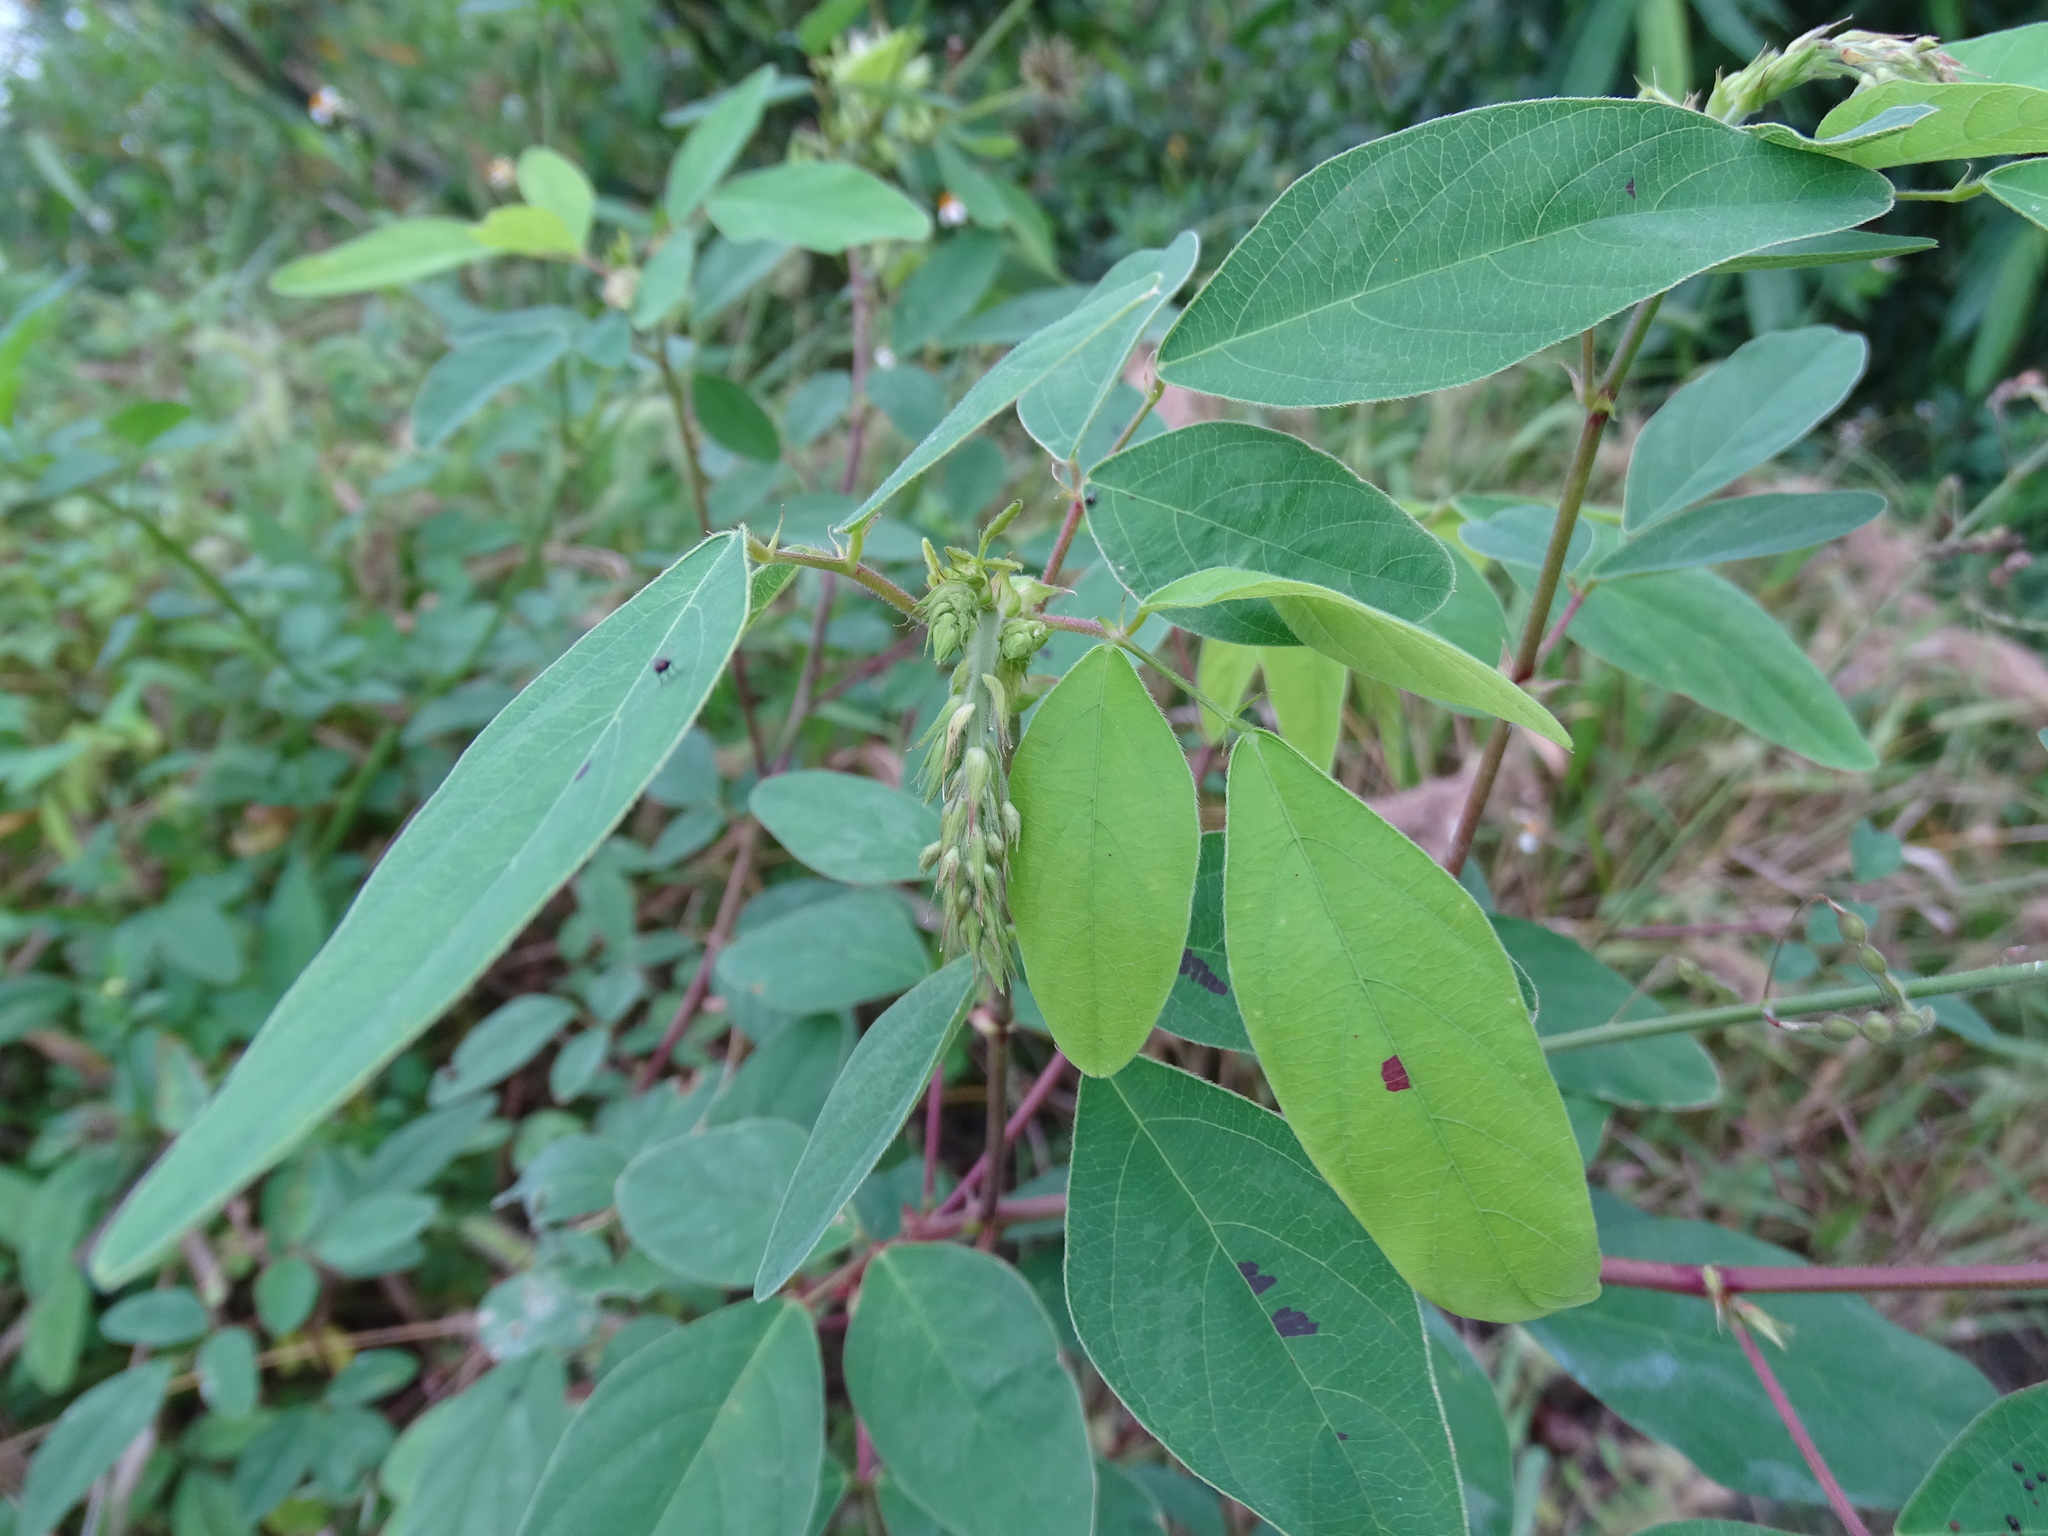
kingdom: Plantae
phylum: Tracheophyta
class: Magnoliopsida
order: Fabales
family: Fabaceae
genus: Desmodium
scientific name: Desmodium tortuosum
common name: Dixie ticktrefoil
